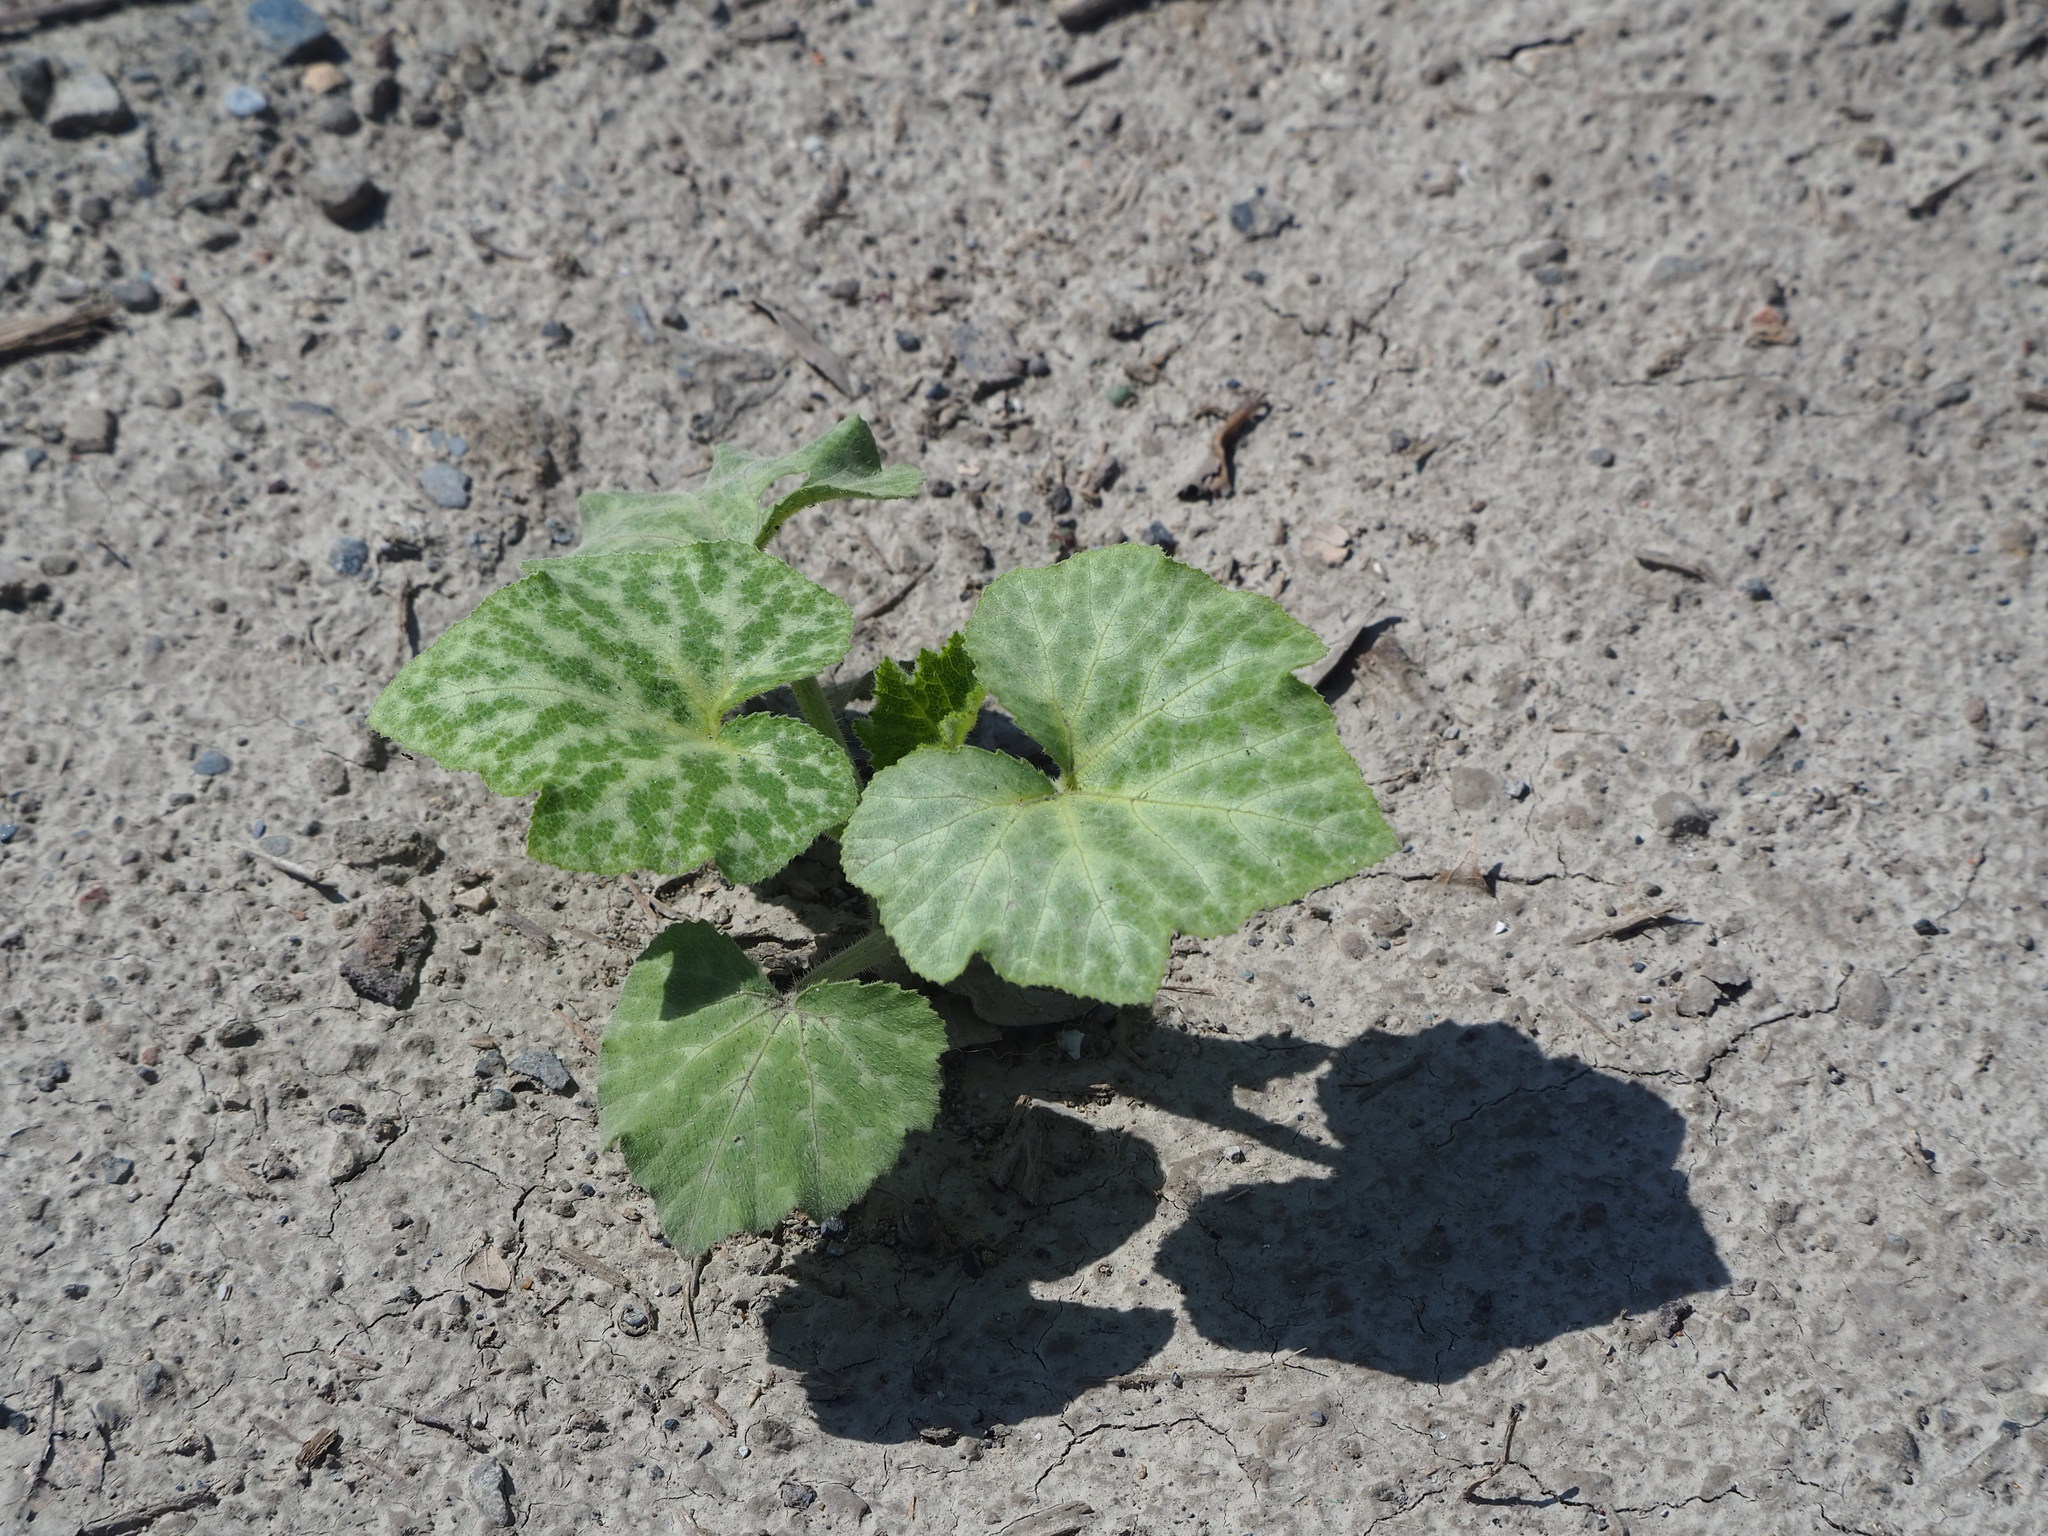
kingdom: Plantae
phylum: Tracheophyta
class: Magnoliopsida
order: Cucurbitales
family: Cucurbitaceae
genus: Cucurbita
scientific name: Cucurbita moschata
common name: Squash / pumpkin
